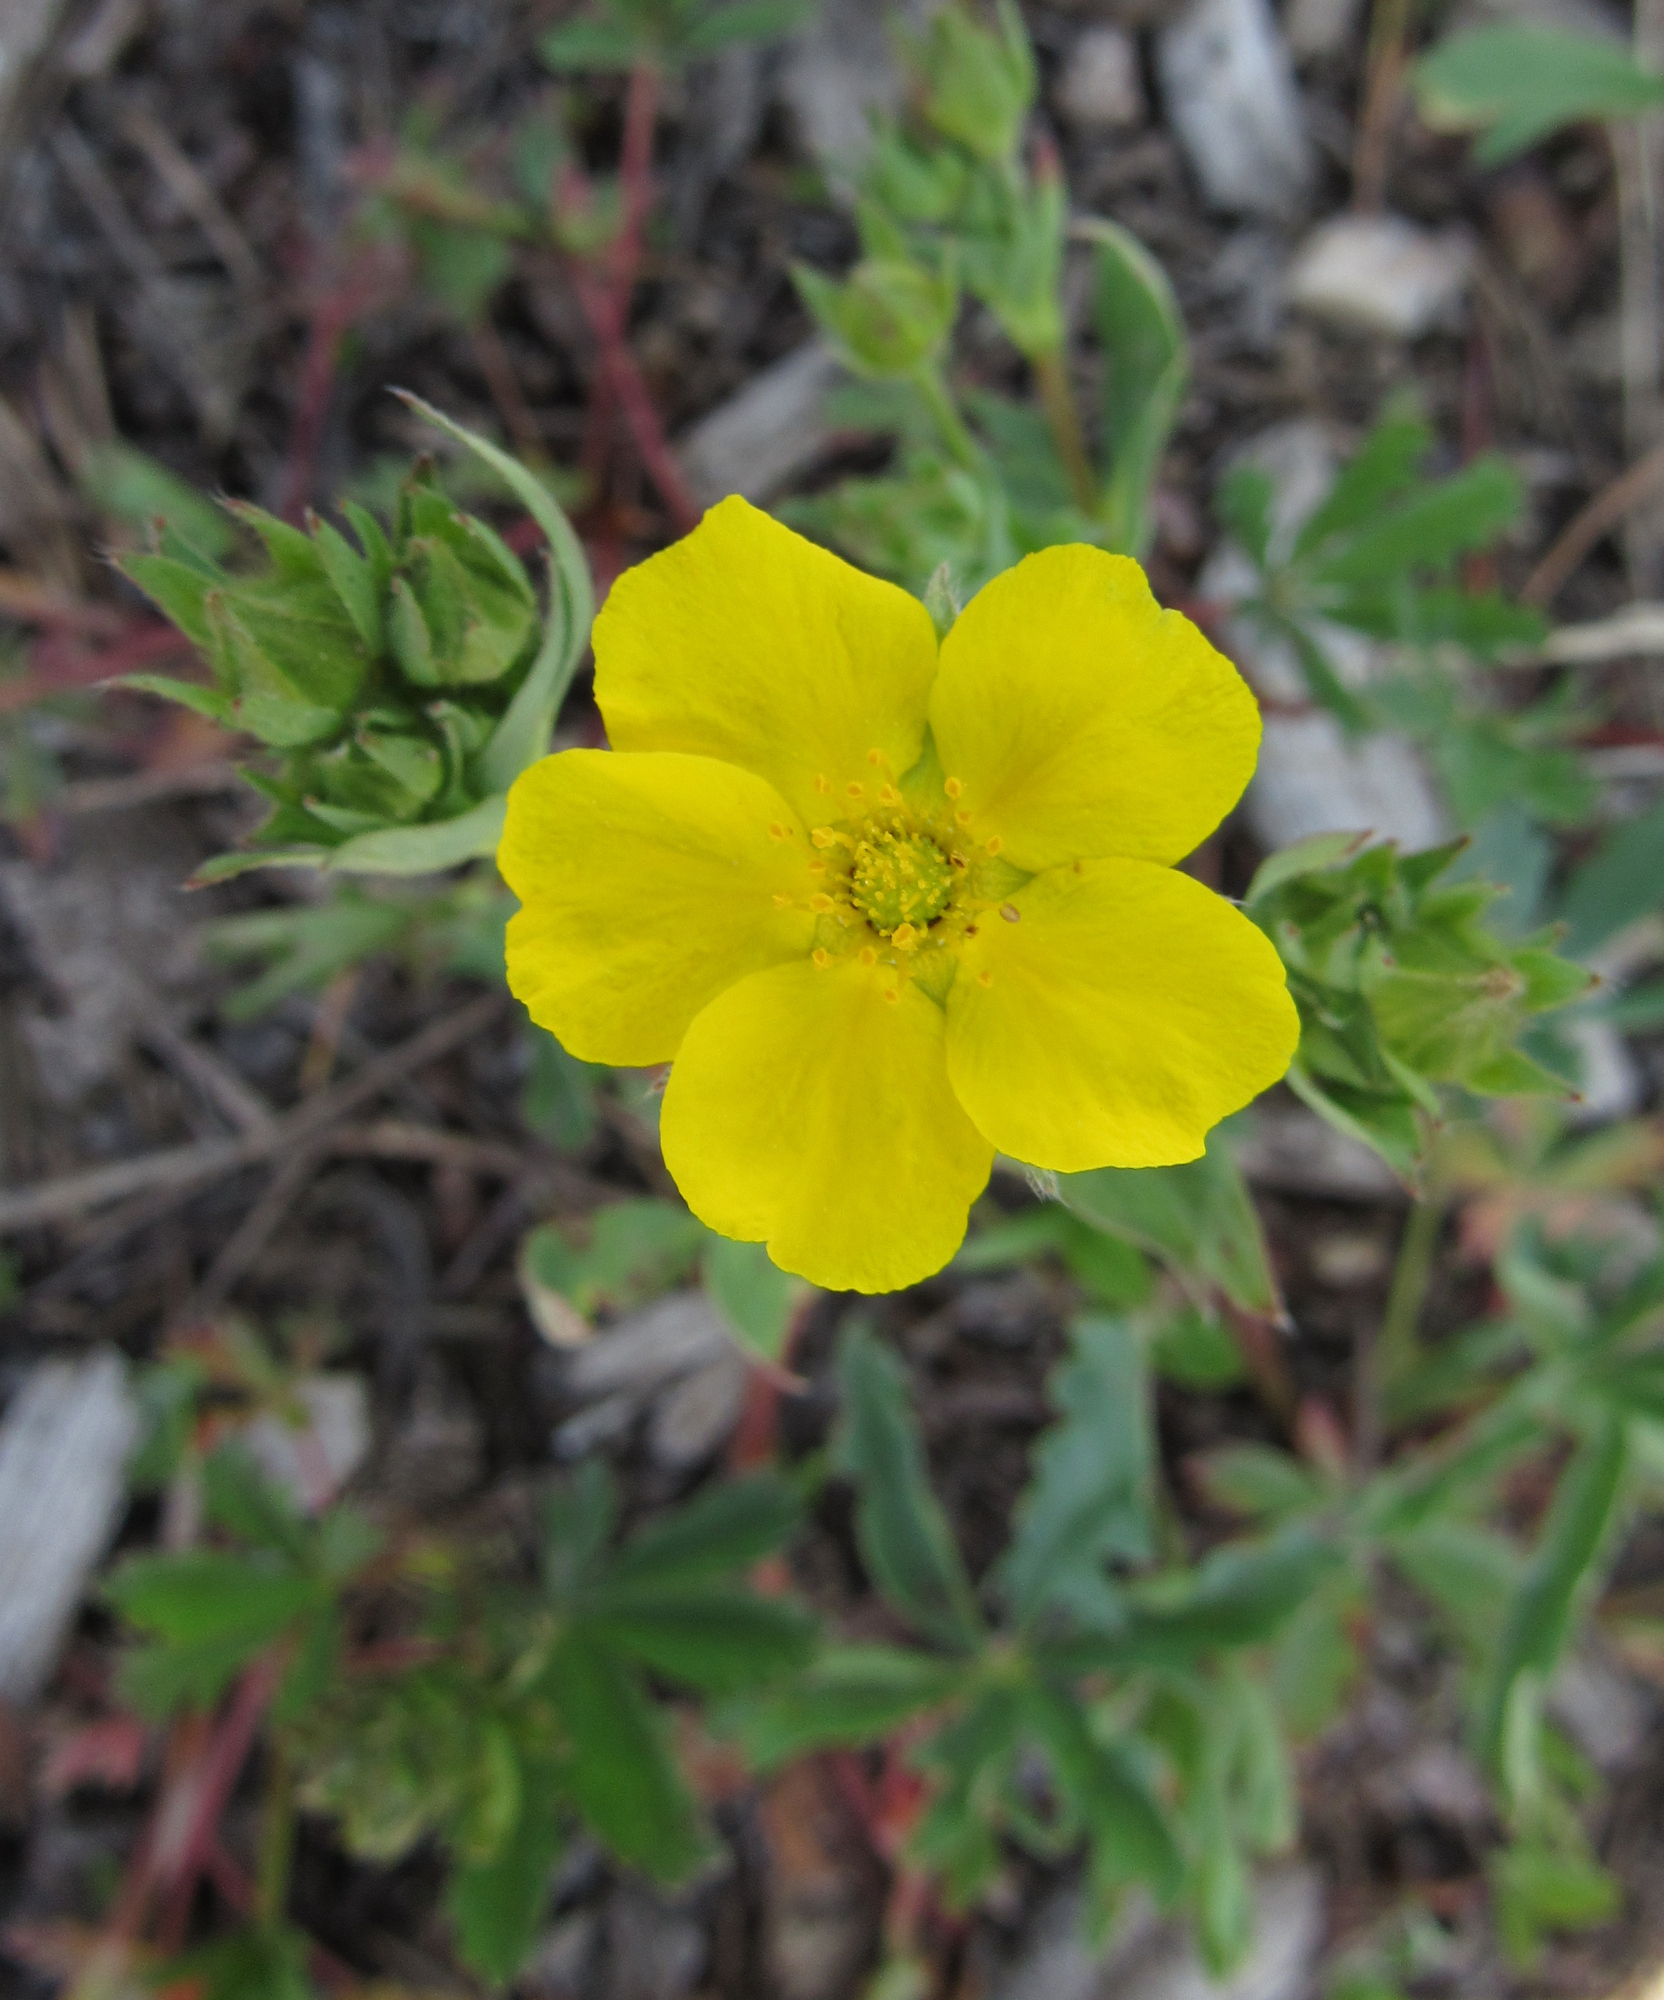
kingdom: Plantae
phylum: Tracheophyta
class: Magnoliopsida
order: Rosales
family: Rosaceae
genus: Potentilla
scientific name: Potentilla glaucophylla
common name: Blue-leaved cinquefoil
